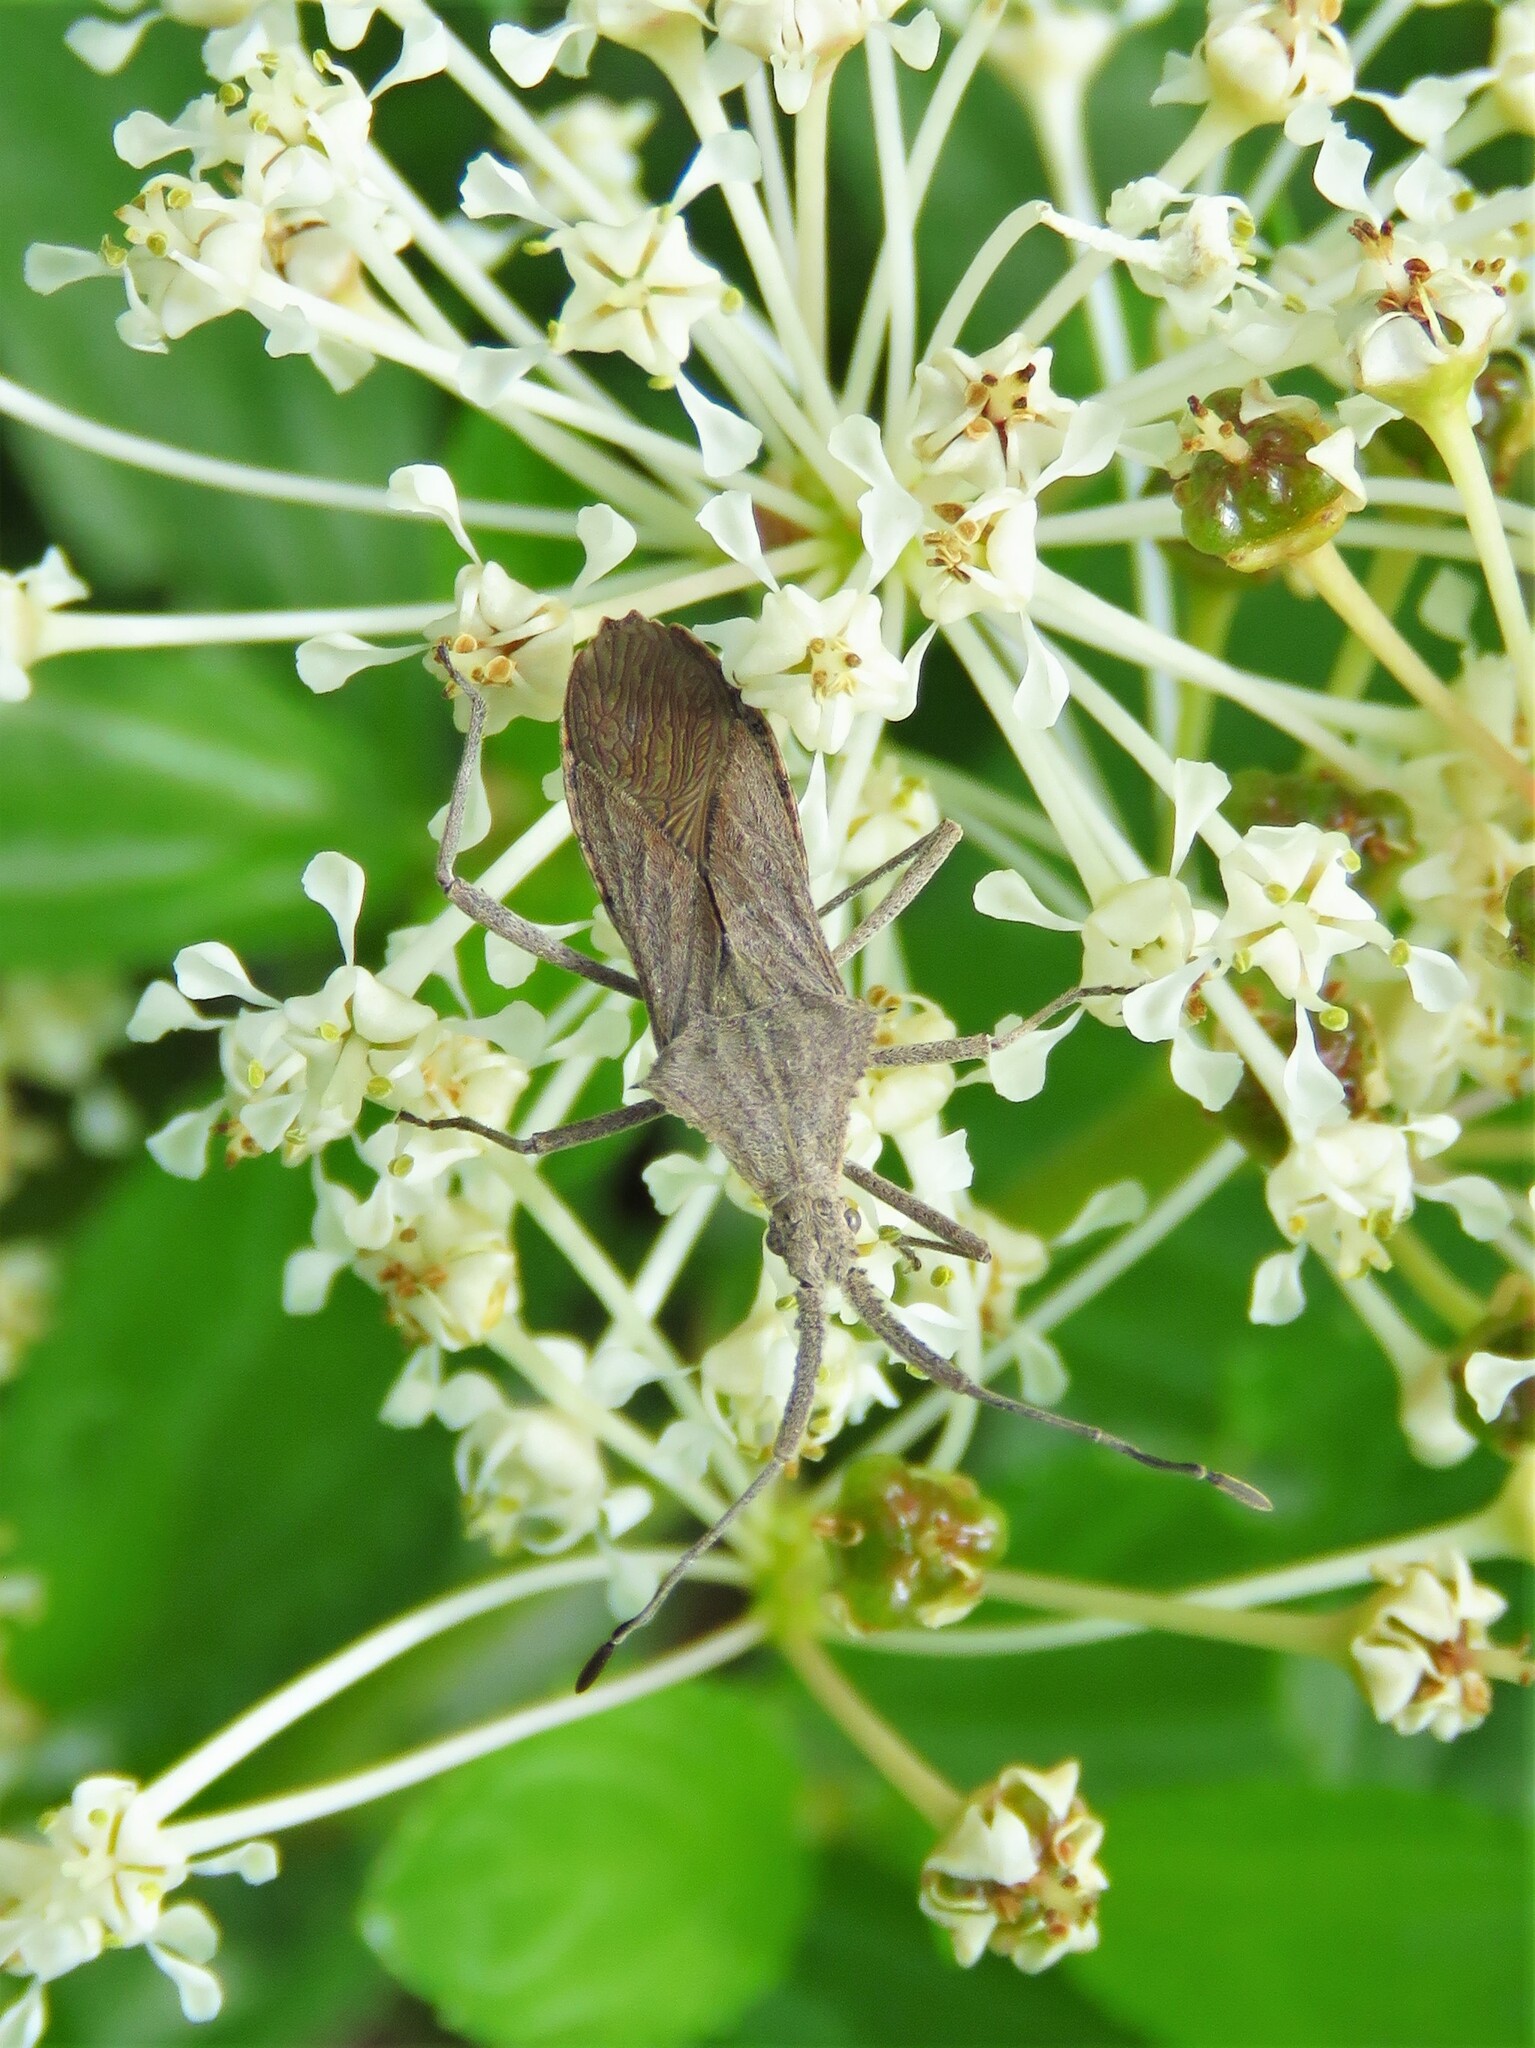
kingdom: Animalia
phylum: Arthropoda
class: Insecta
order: Hemiptera
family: Coreidae
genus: Chariesterus
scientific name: Chariesterus antennator
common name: Flat horned coreid
